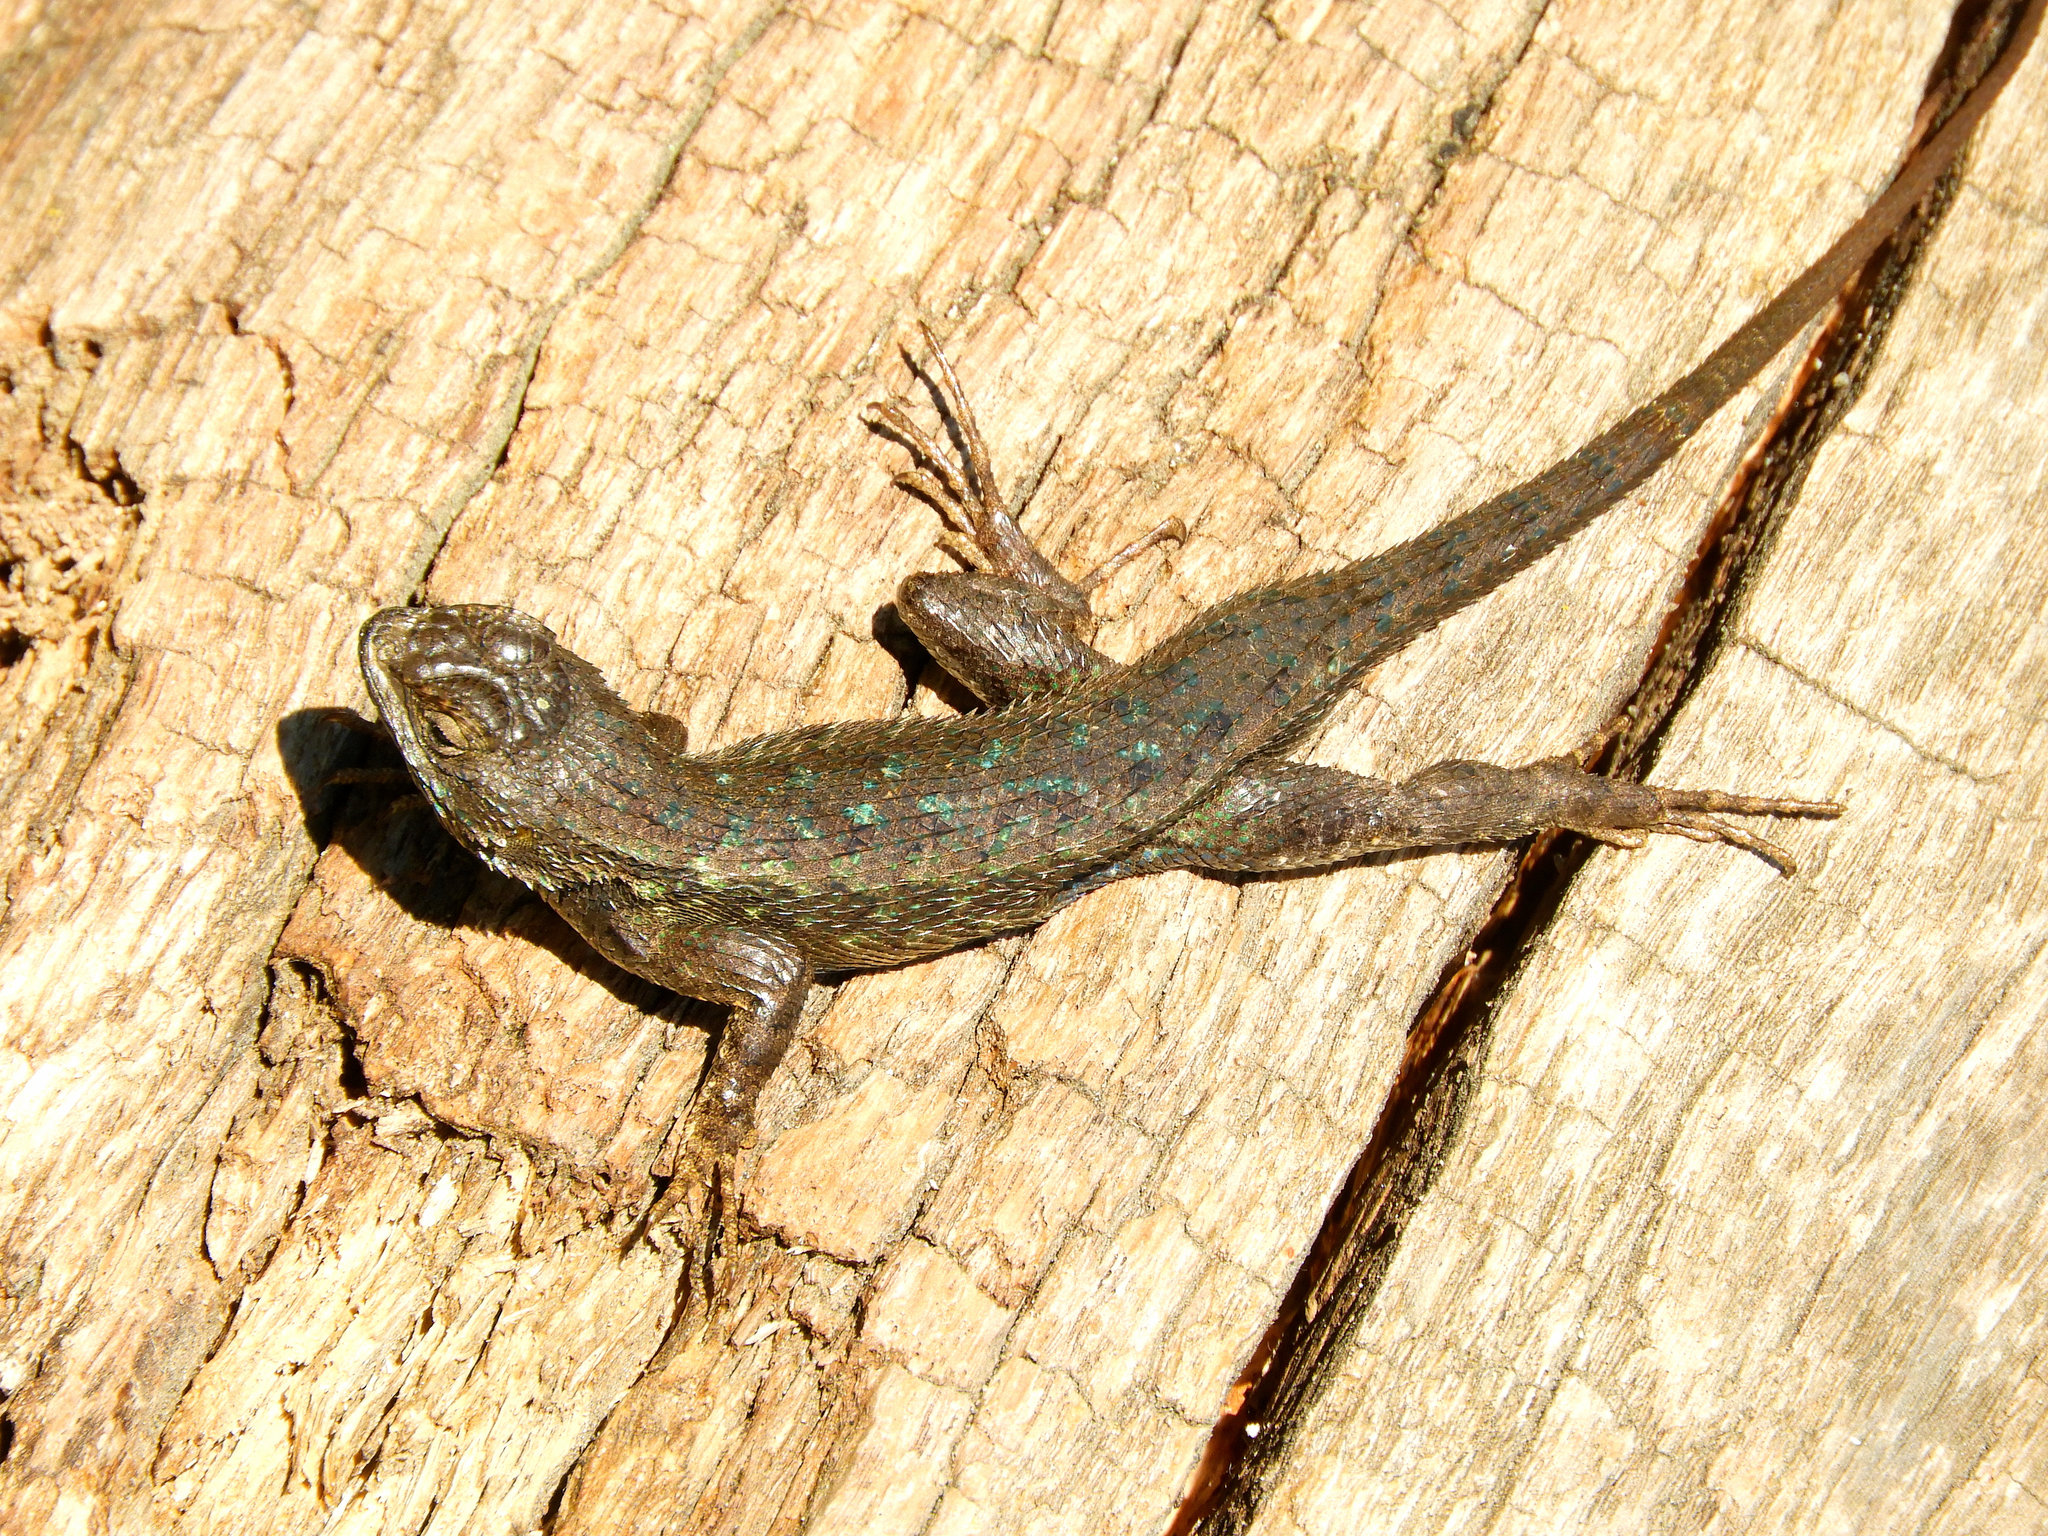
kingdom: Animalia
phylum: Chordata
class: Squamata
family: Phrynosomatidae
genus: Sceloporus
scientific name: Sceloporus occidentalis
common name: Western fence lizard
